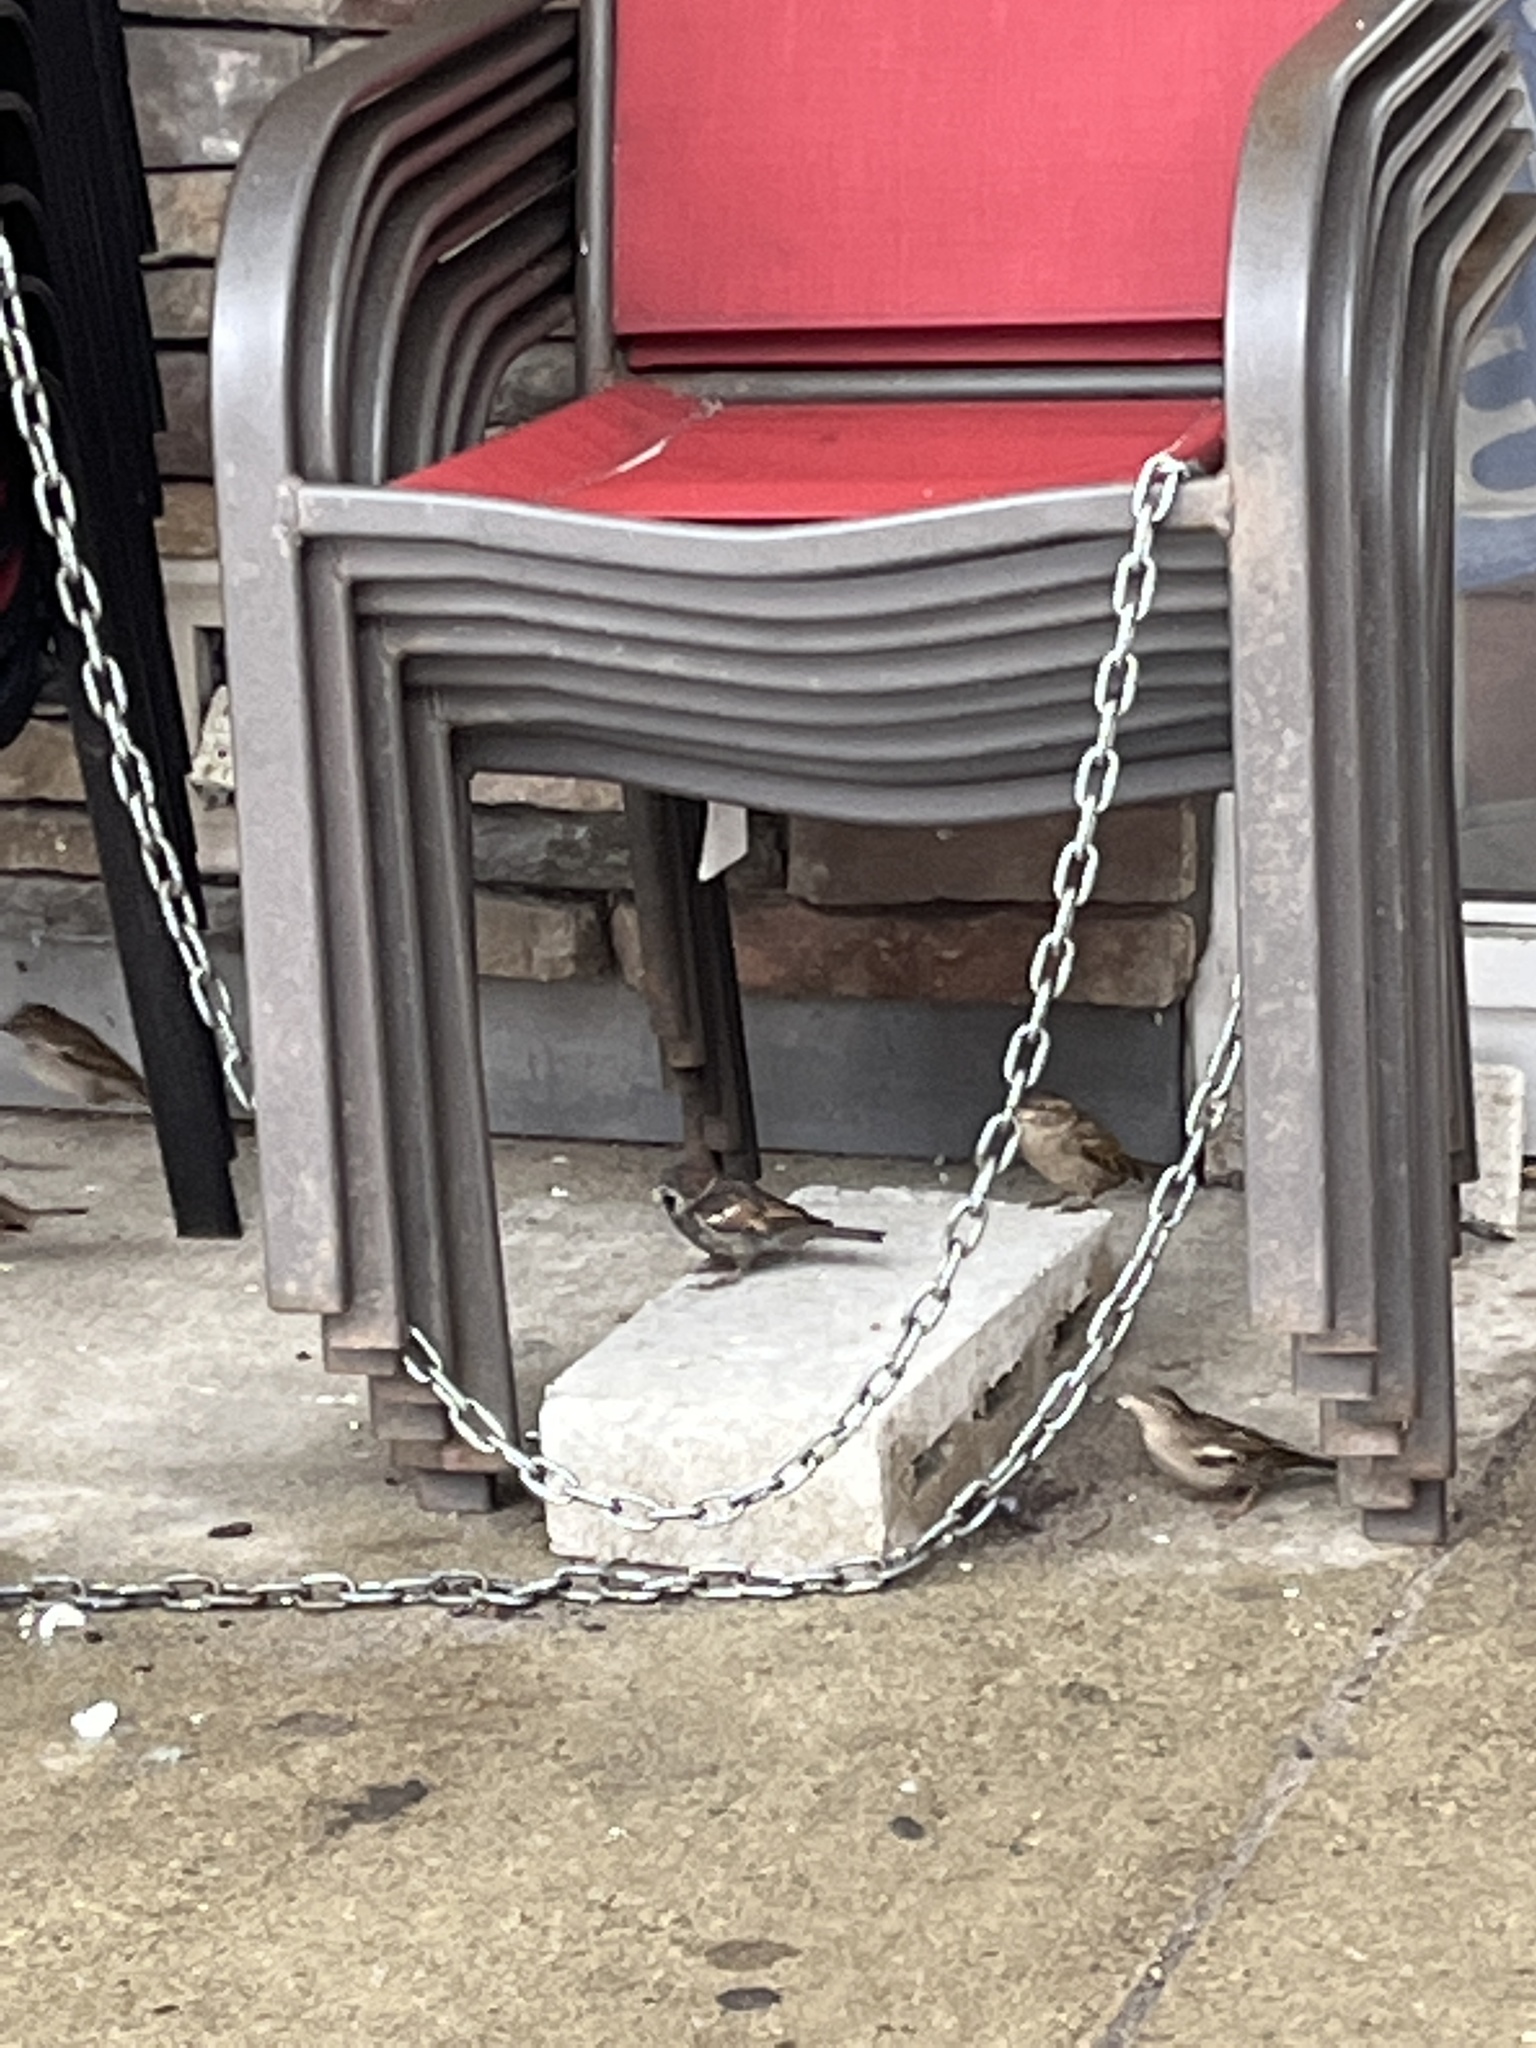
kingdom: Animalia
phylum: Chordata
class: Aves
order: Passeriformes
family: Passeridae
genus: Passer
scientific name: Passer domesticus
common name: House sparrow
